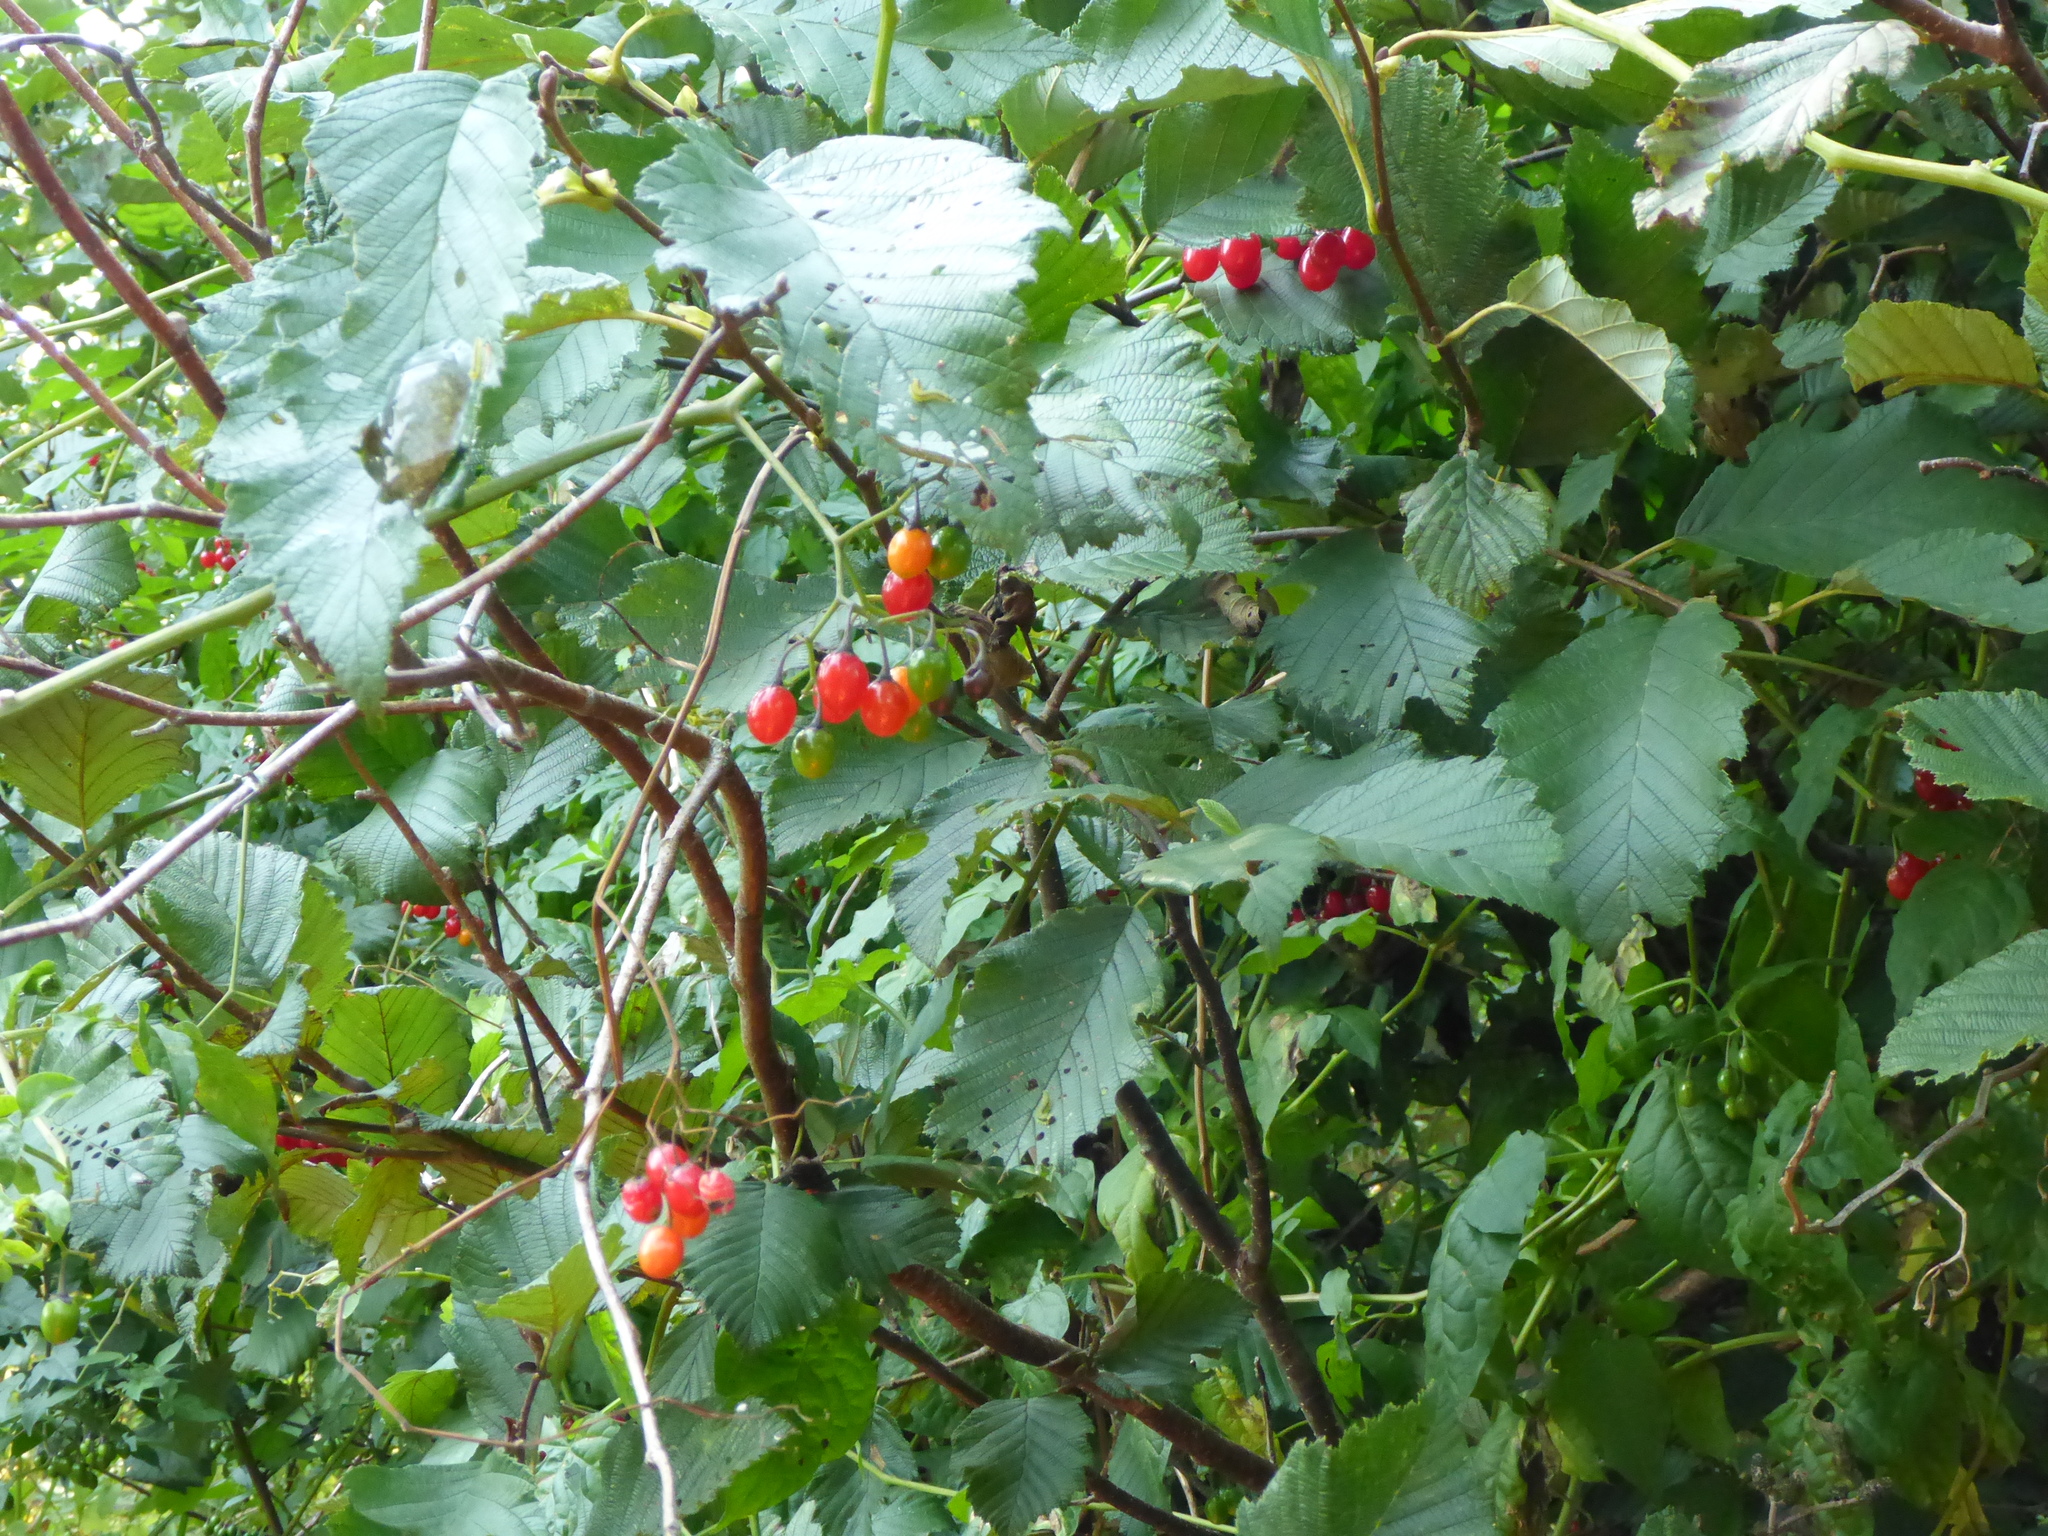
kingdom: Plantae
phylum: Tracheophyta
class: Magnoliopsida
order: Solanales
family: Solanaceae
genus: Solanum
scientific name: Solanum dulcamara
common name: Climbing nightshade
